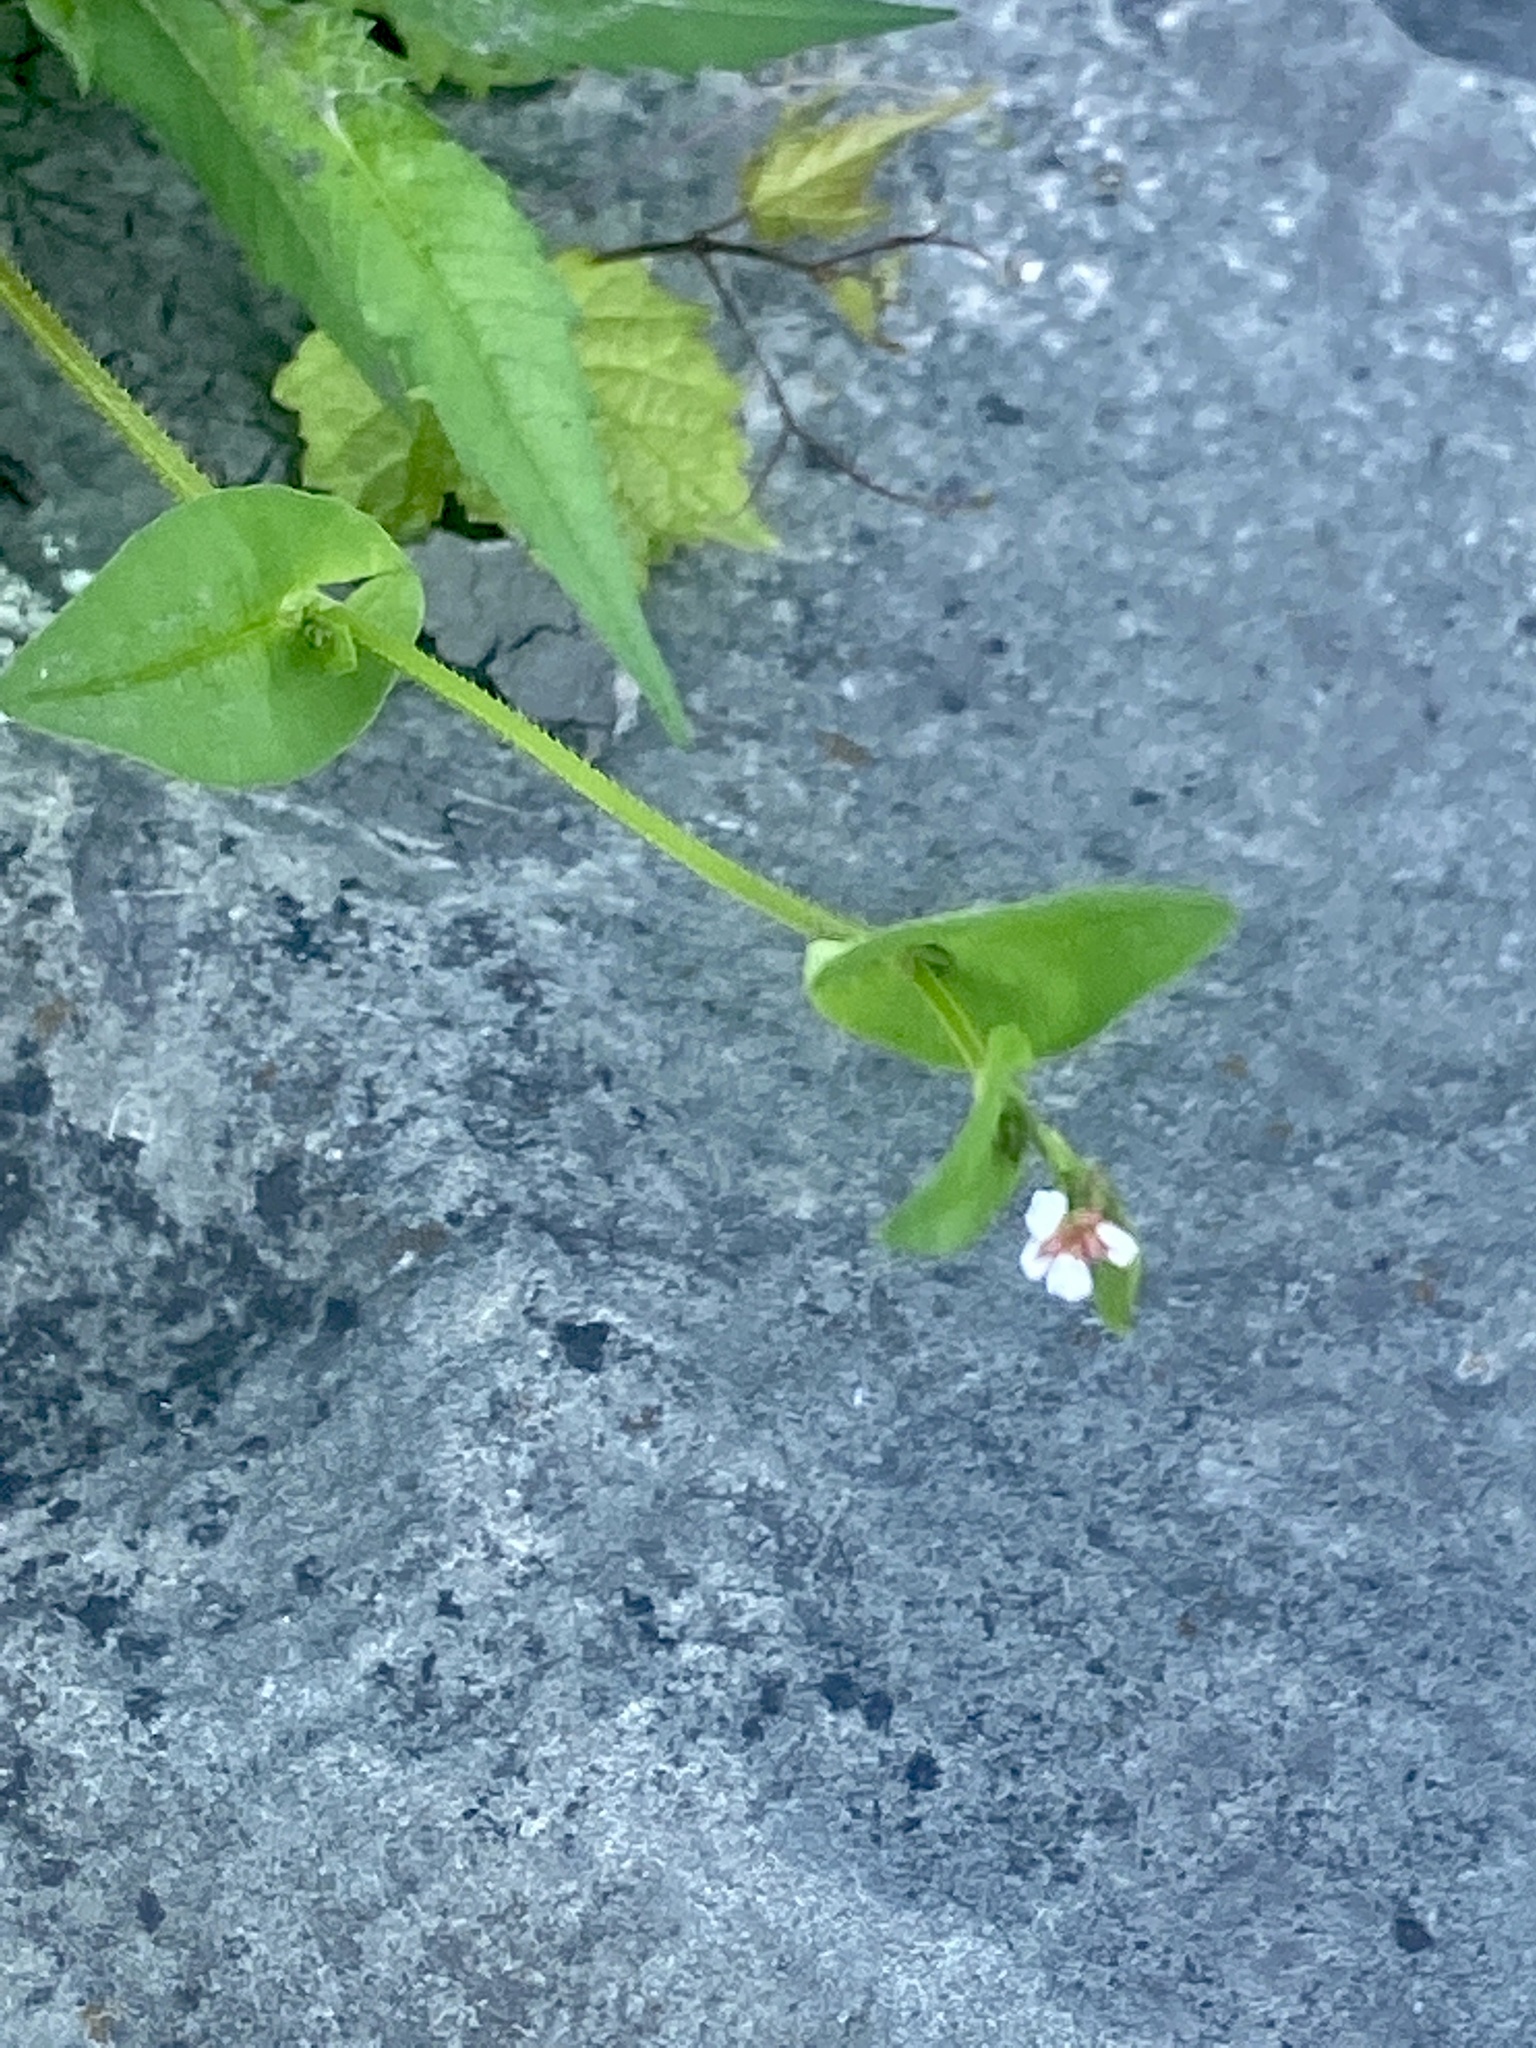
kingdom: Plantae
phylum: Tracheophyta
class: Magnoliopsida
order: Caryophyllales
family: Polygonaceae
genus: Persicaria
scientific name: Persicaria sagittata
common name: American tearthumb
